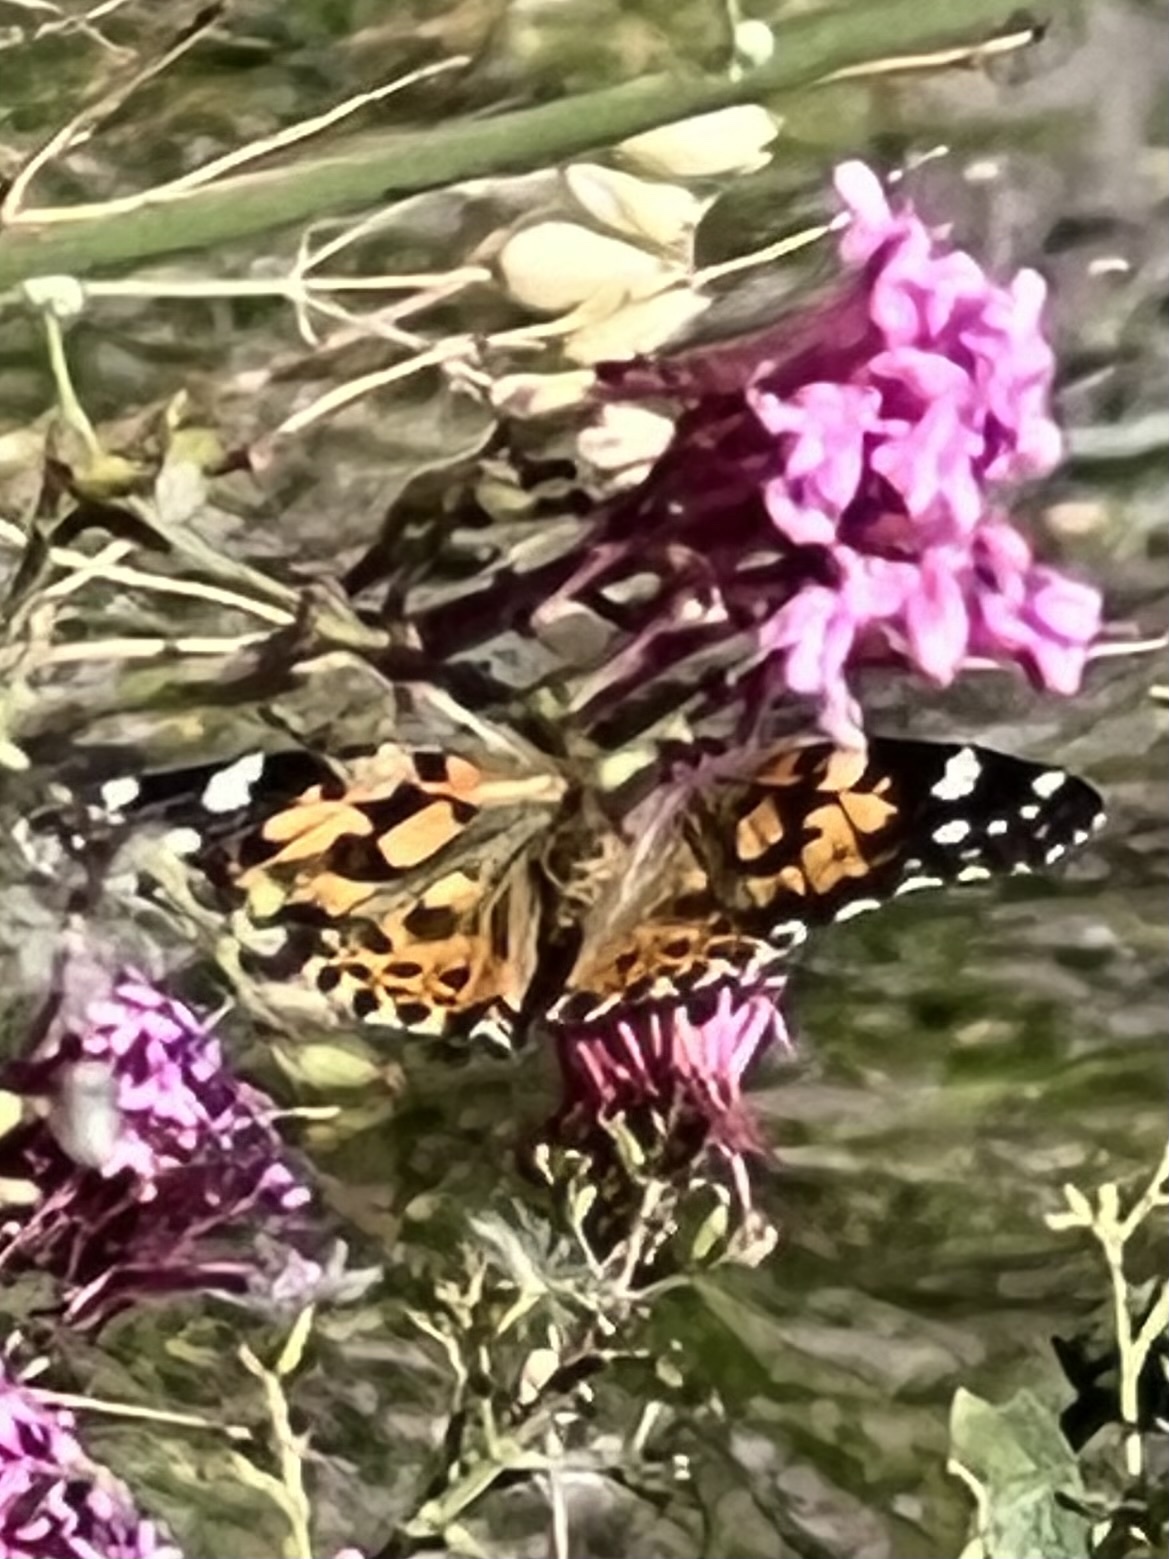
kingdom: Animalia
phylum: Arthropoda
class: Insecta
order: Lepidoptera
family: Nymphalidae
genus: Vanessa
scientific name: Vanessa cardui
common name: Painted lady
